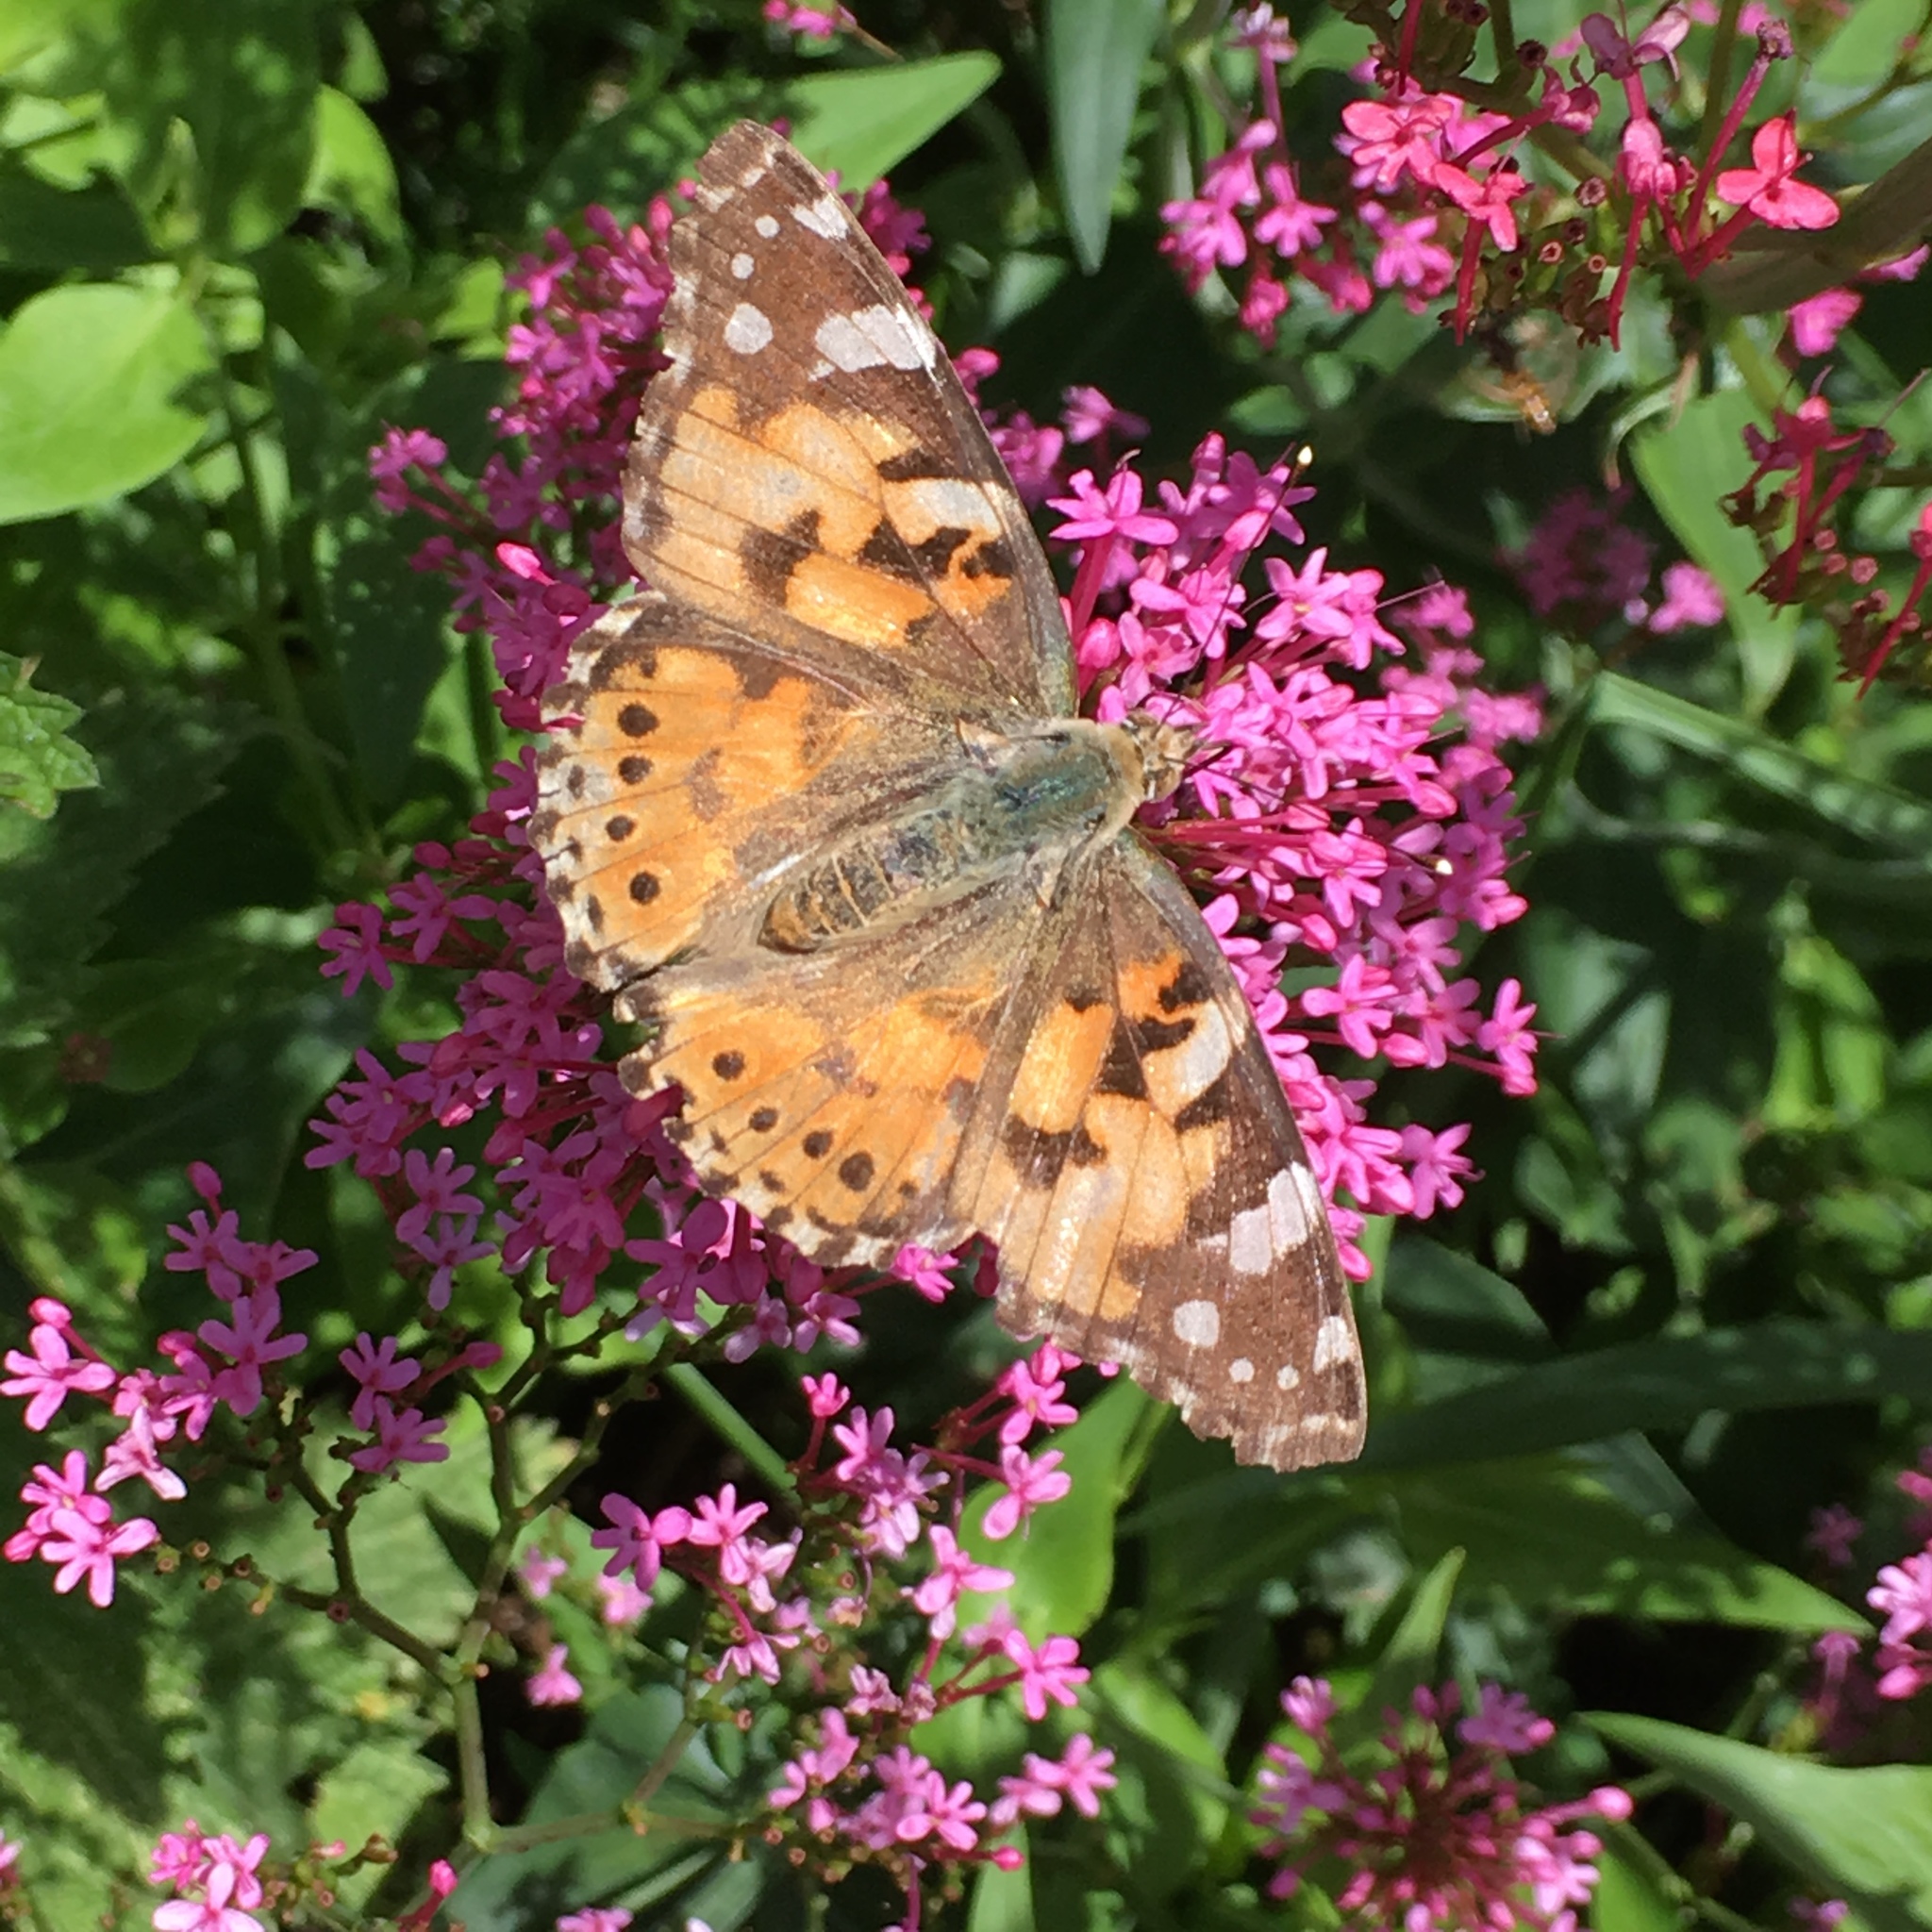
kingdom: Animalia
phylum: Arthropoda
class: Insecta
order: Lepidoptera
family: Nymphalidae
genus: Vanessa
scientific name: Vanessa cardui
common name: Painted lady
